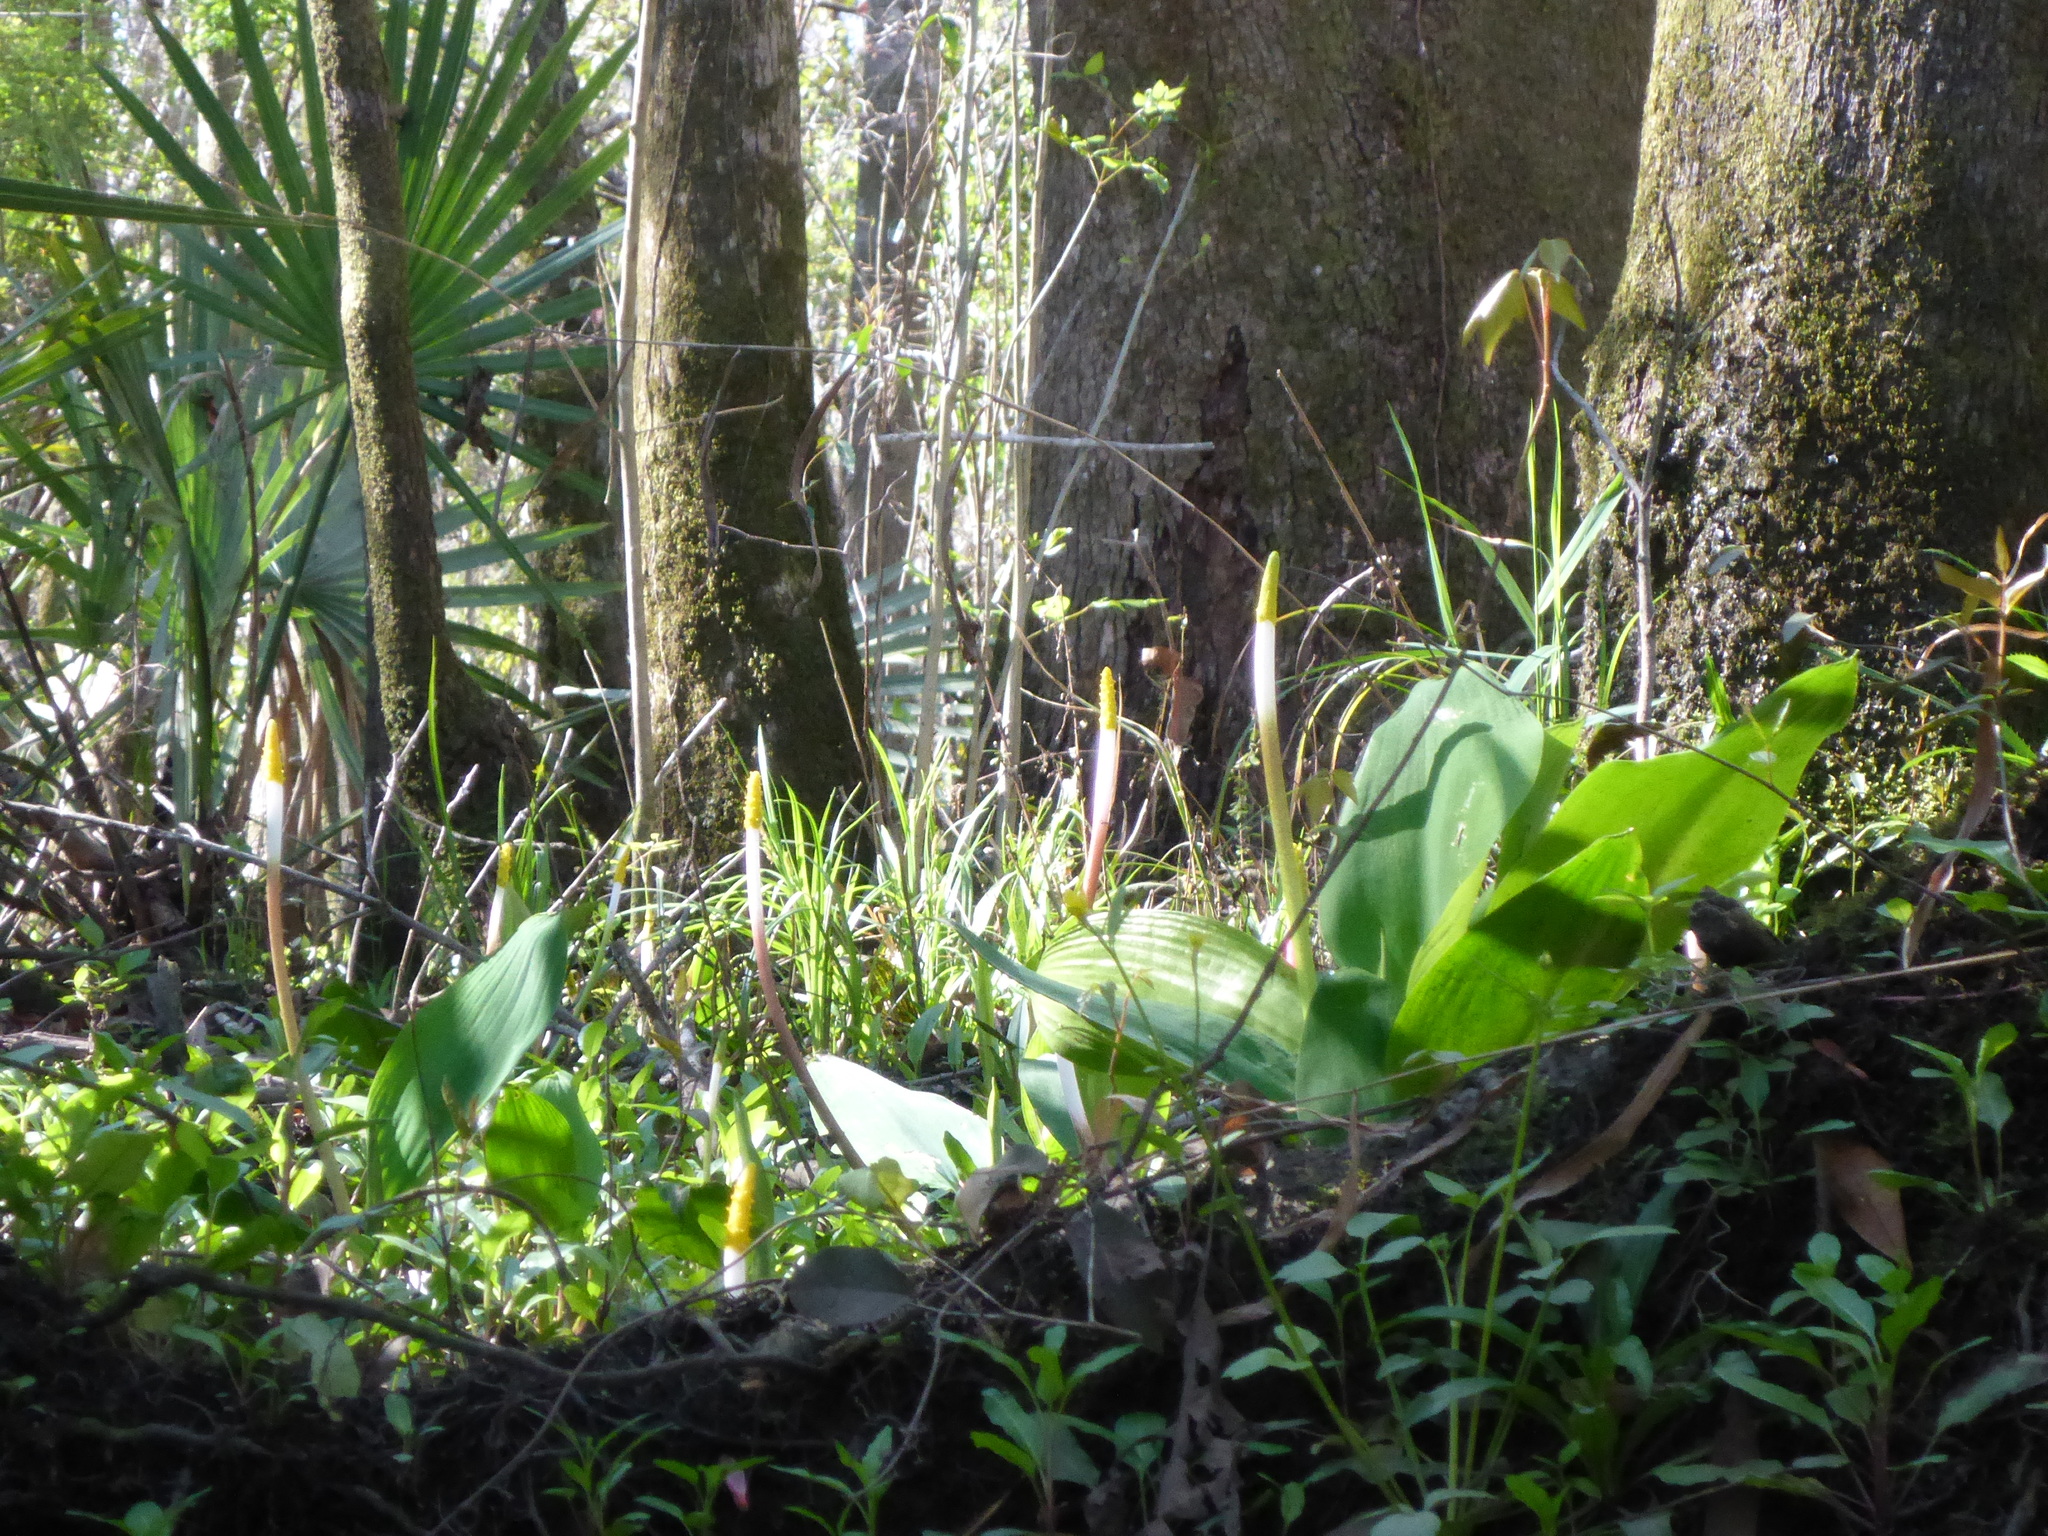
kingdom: Plantae
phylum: Tracheophyta
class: Liliopsida
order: Alismatales
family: Araceae
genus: Orontium
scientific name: Orontium aquaticum
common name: Golden-club
